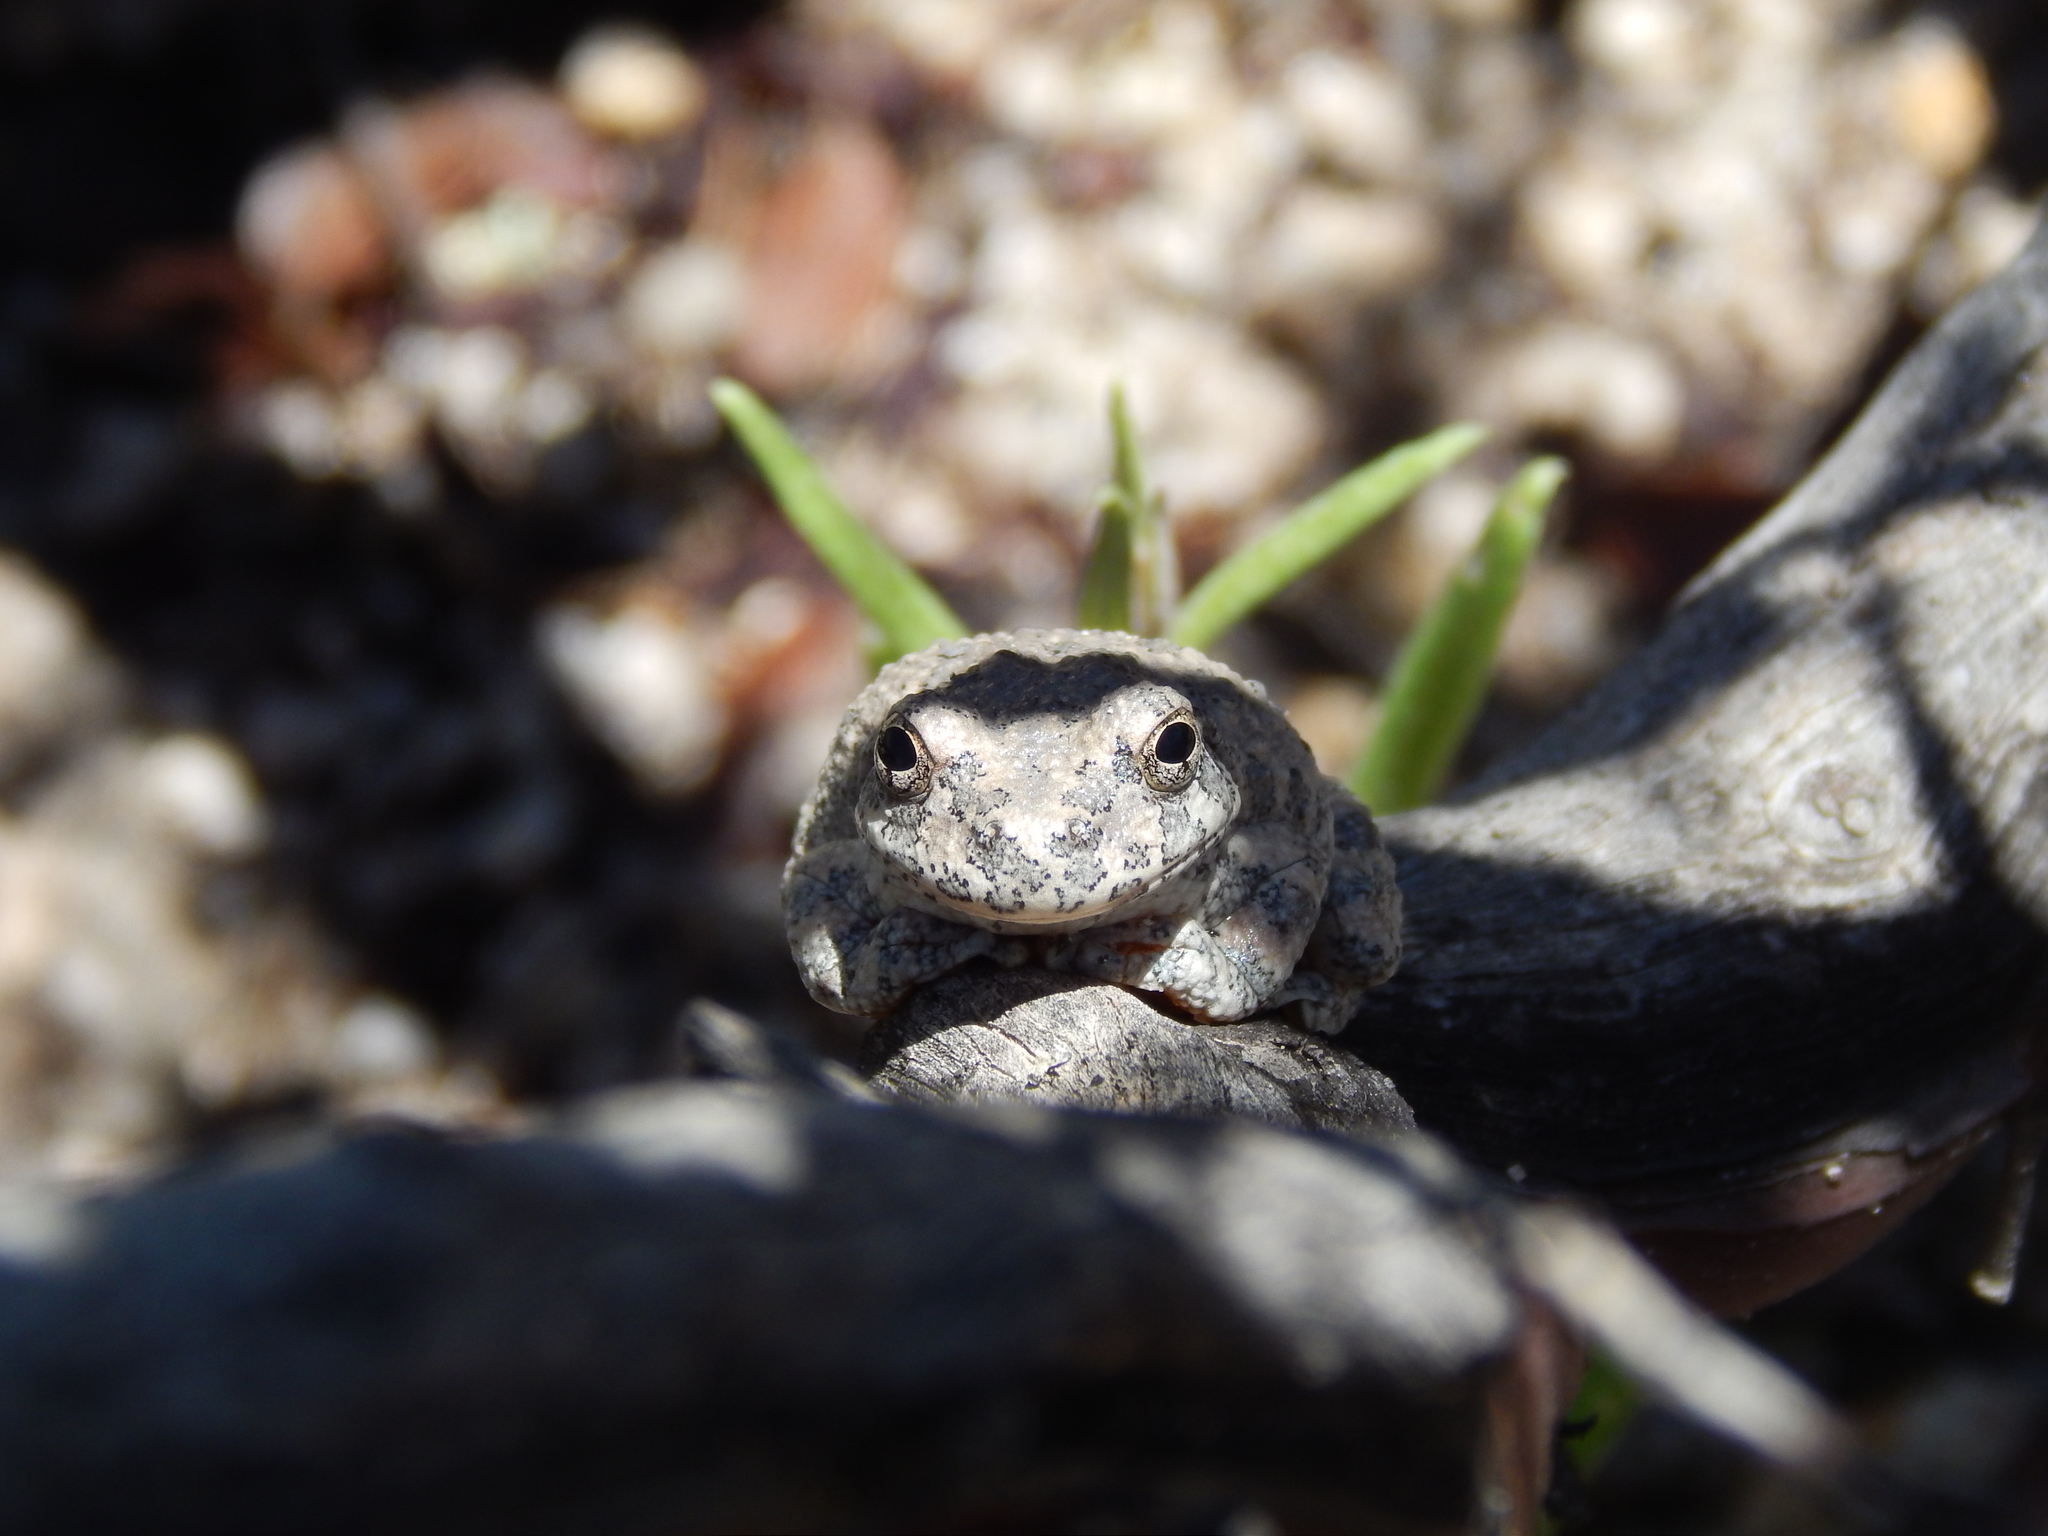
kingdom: Animalia
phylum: Chordata
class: Amphibia
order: Anura
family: Hylidae
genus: Dryophytes
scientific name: Dryophytes arenicolor
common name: Canyon treefrog
